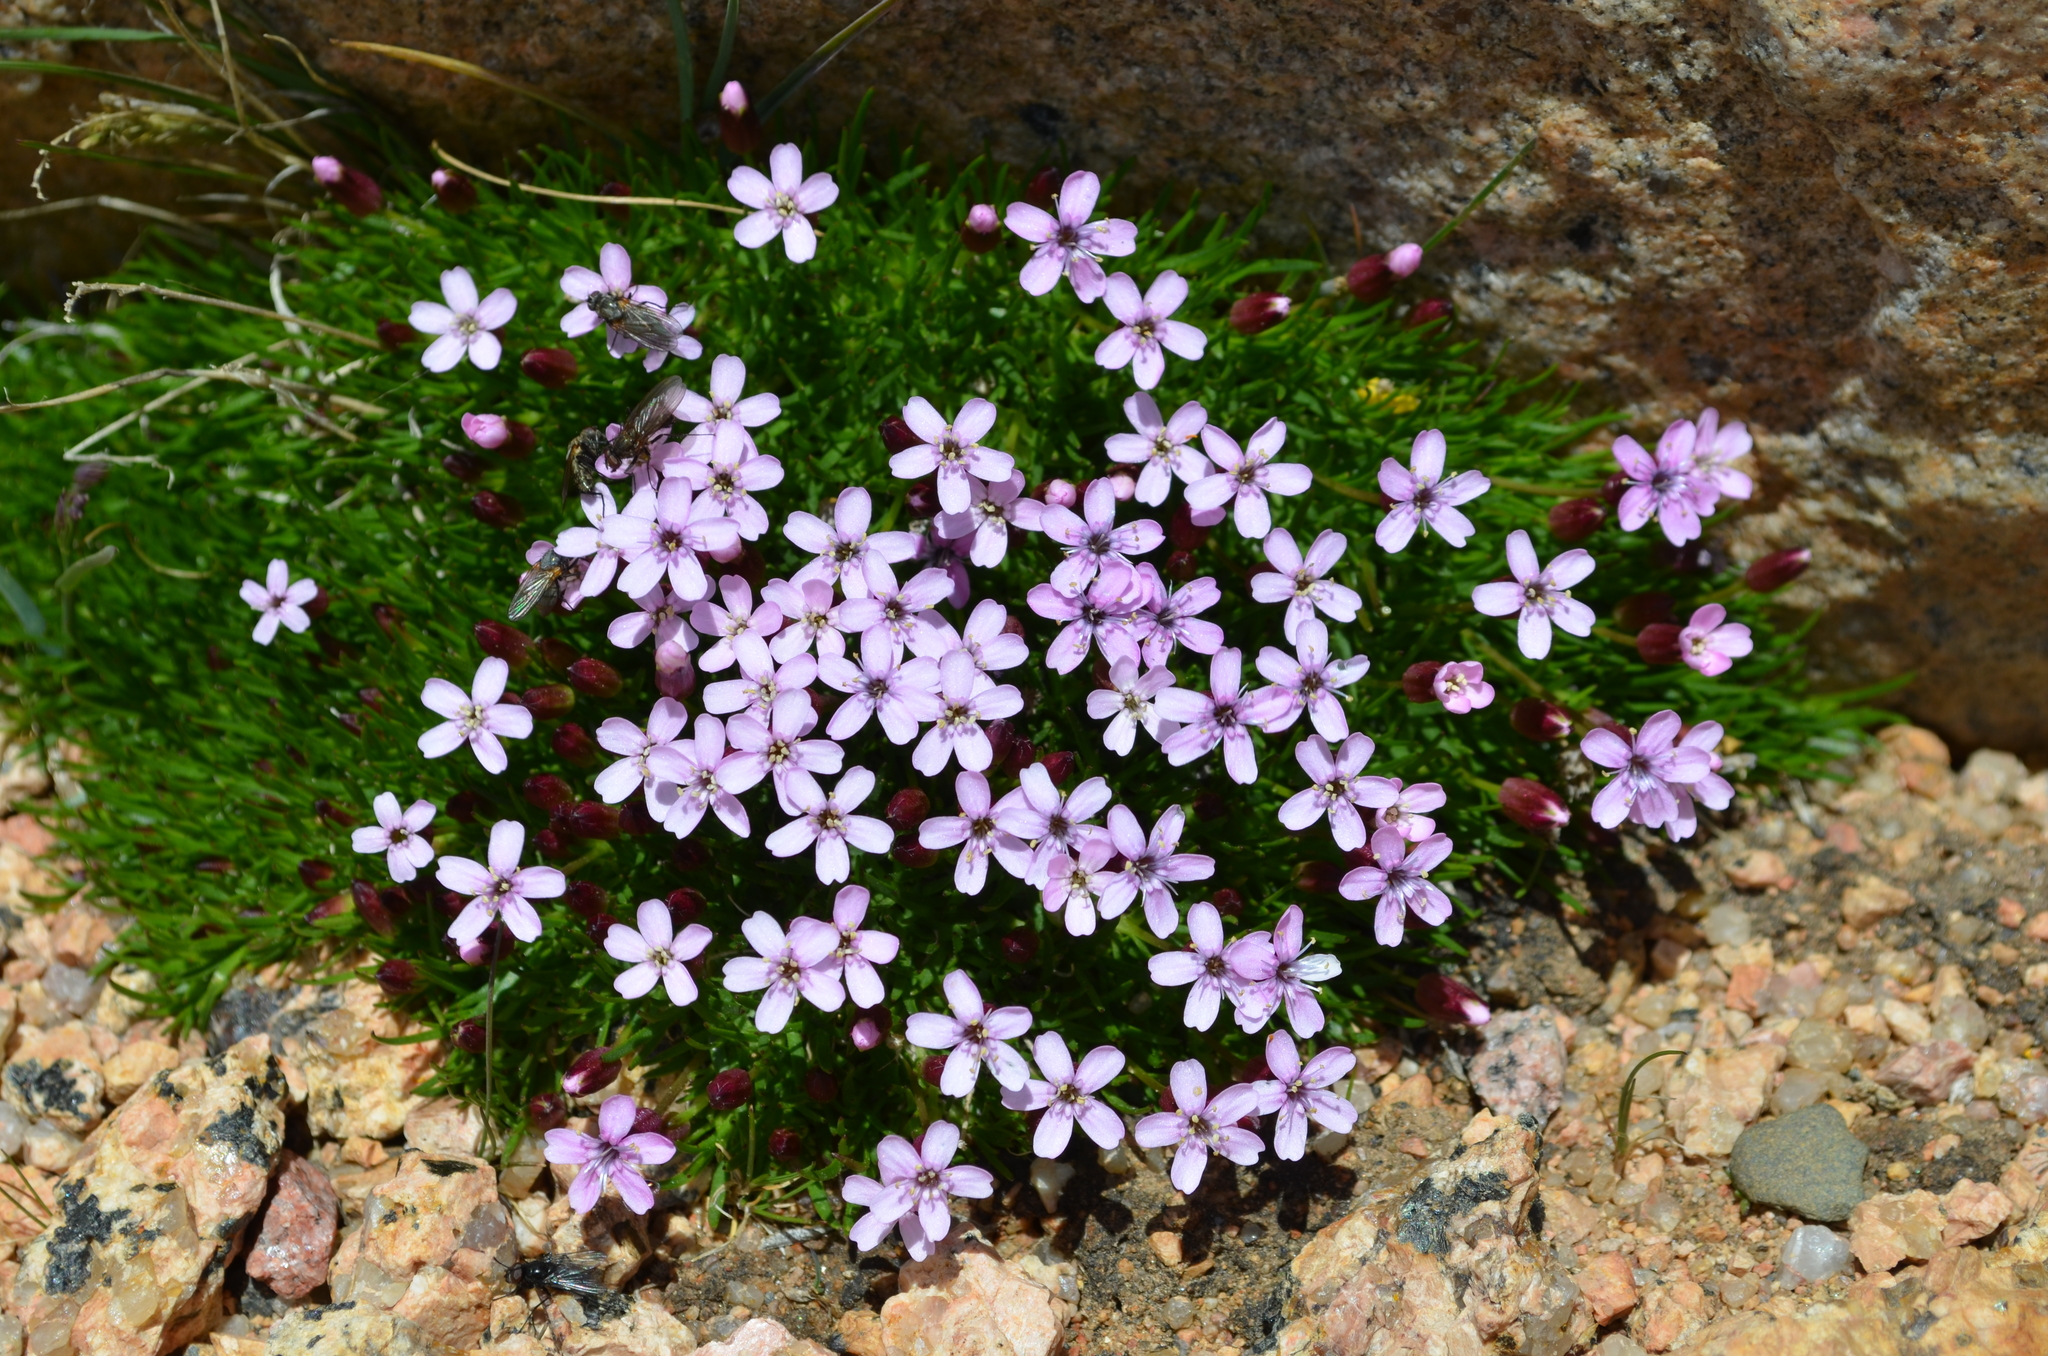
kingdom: Plantae
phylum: Tracheophyta
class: Magnoliopsida
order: Caryophyllales
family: Caryophyllaceae
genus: Silene
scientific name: Silene acaulis
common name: Moss campion
